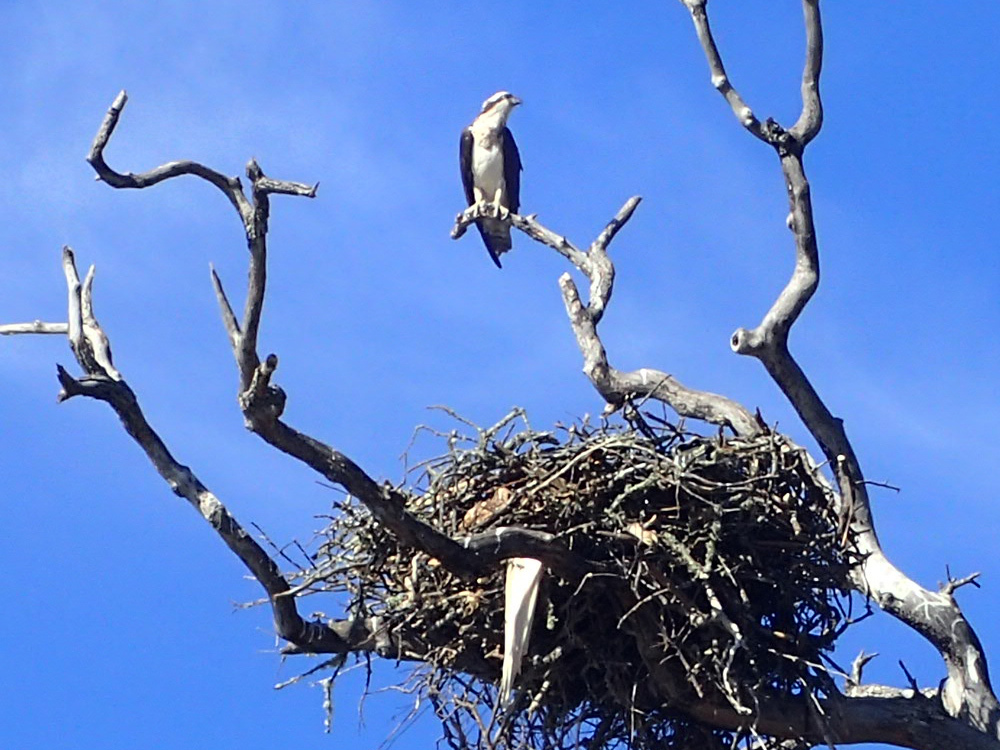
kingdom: Animalia
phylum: Chordata
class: Aves
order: Accipitriformes
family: Pandionidae
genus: Pandion
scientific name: Pandion haliaetus
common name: Osprey
